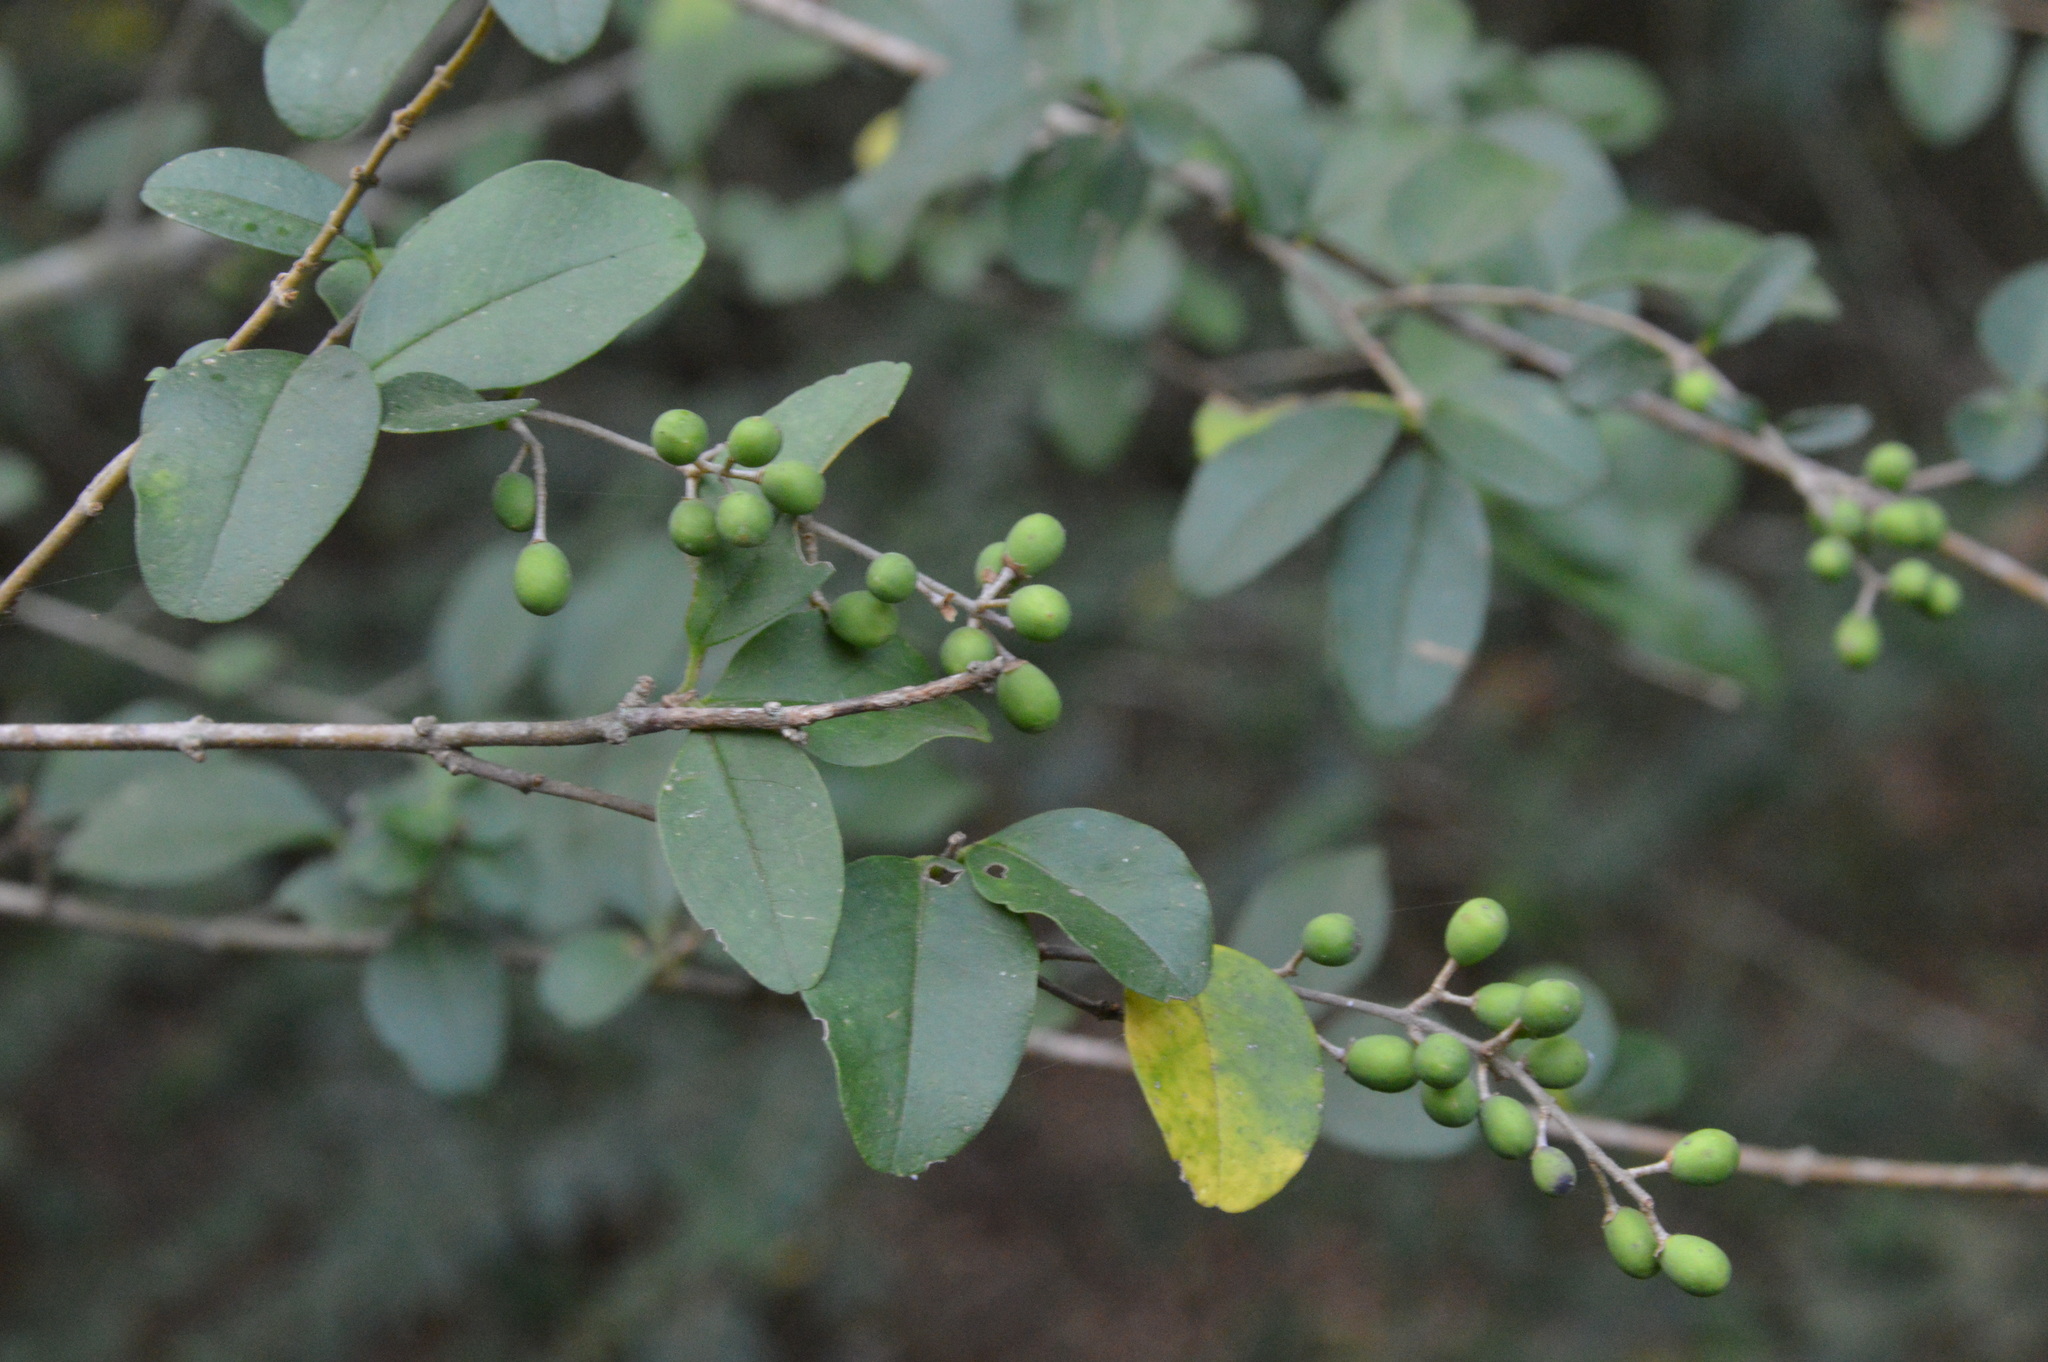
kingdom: Plantae
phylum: Tracheophyta
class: Magnoliopsida
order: Lamiales
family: Oleaceae
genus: Ligustrum
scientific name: Ligustrum sinense
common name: Chinese privet
